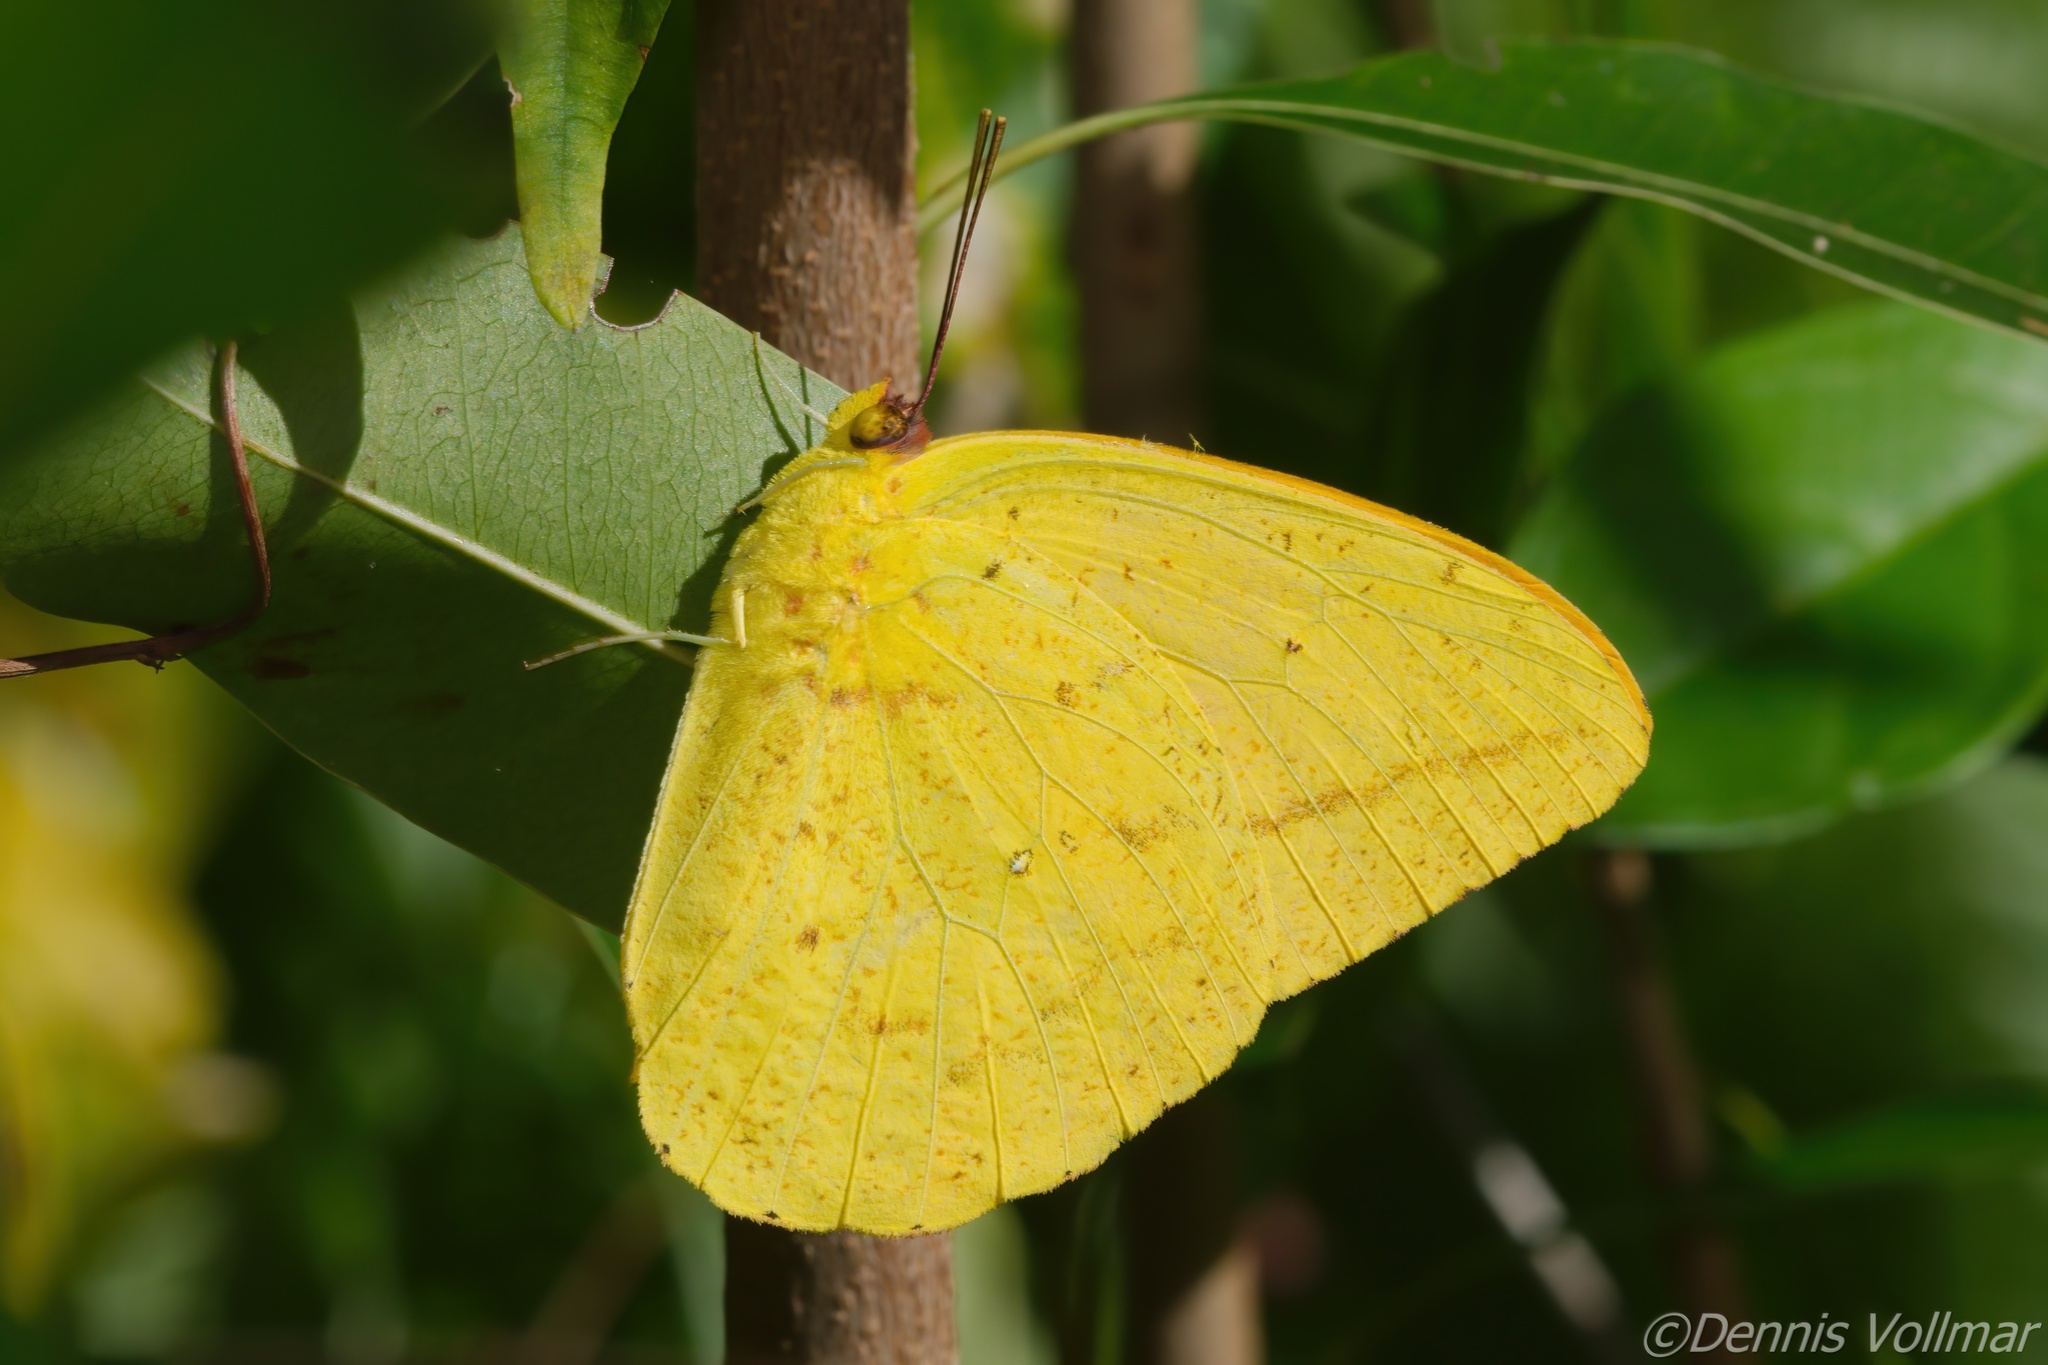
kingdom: Animalia
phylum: Arthropoda
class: Insecta
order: Lepidoptera
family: Pieridae
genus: Phoebis
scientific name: Phoebis agarithe
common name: Large orange sulphur
